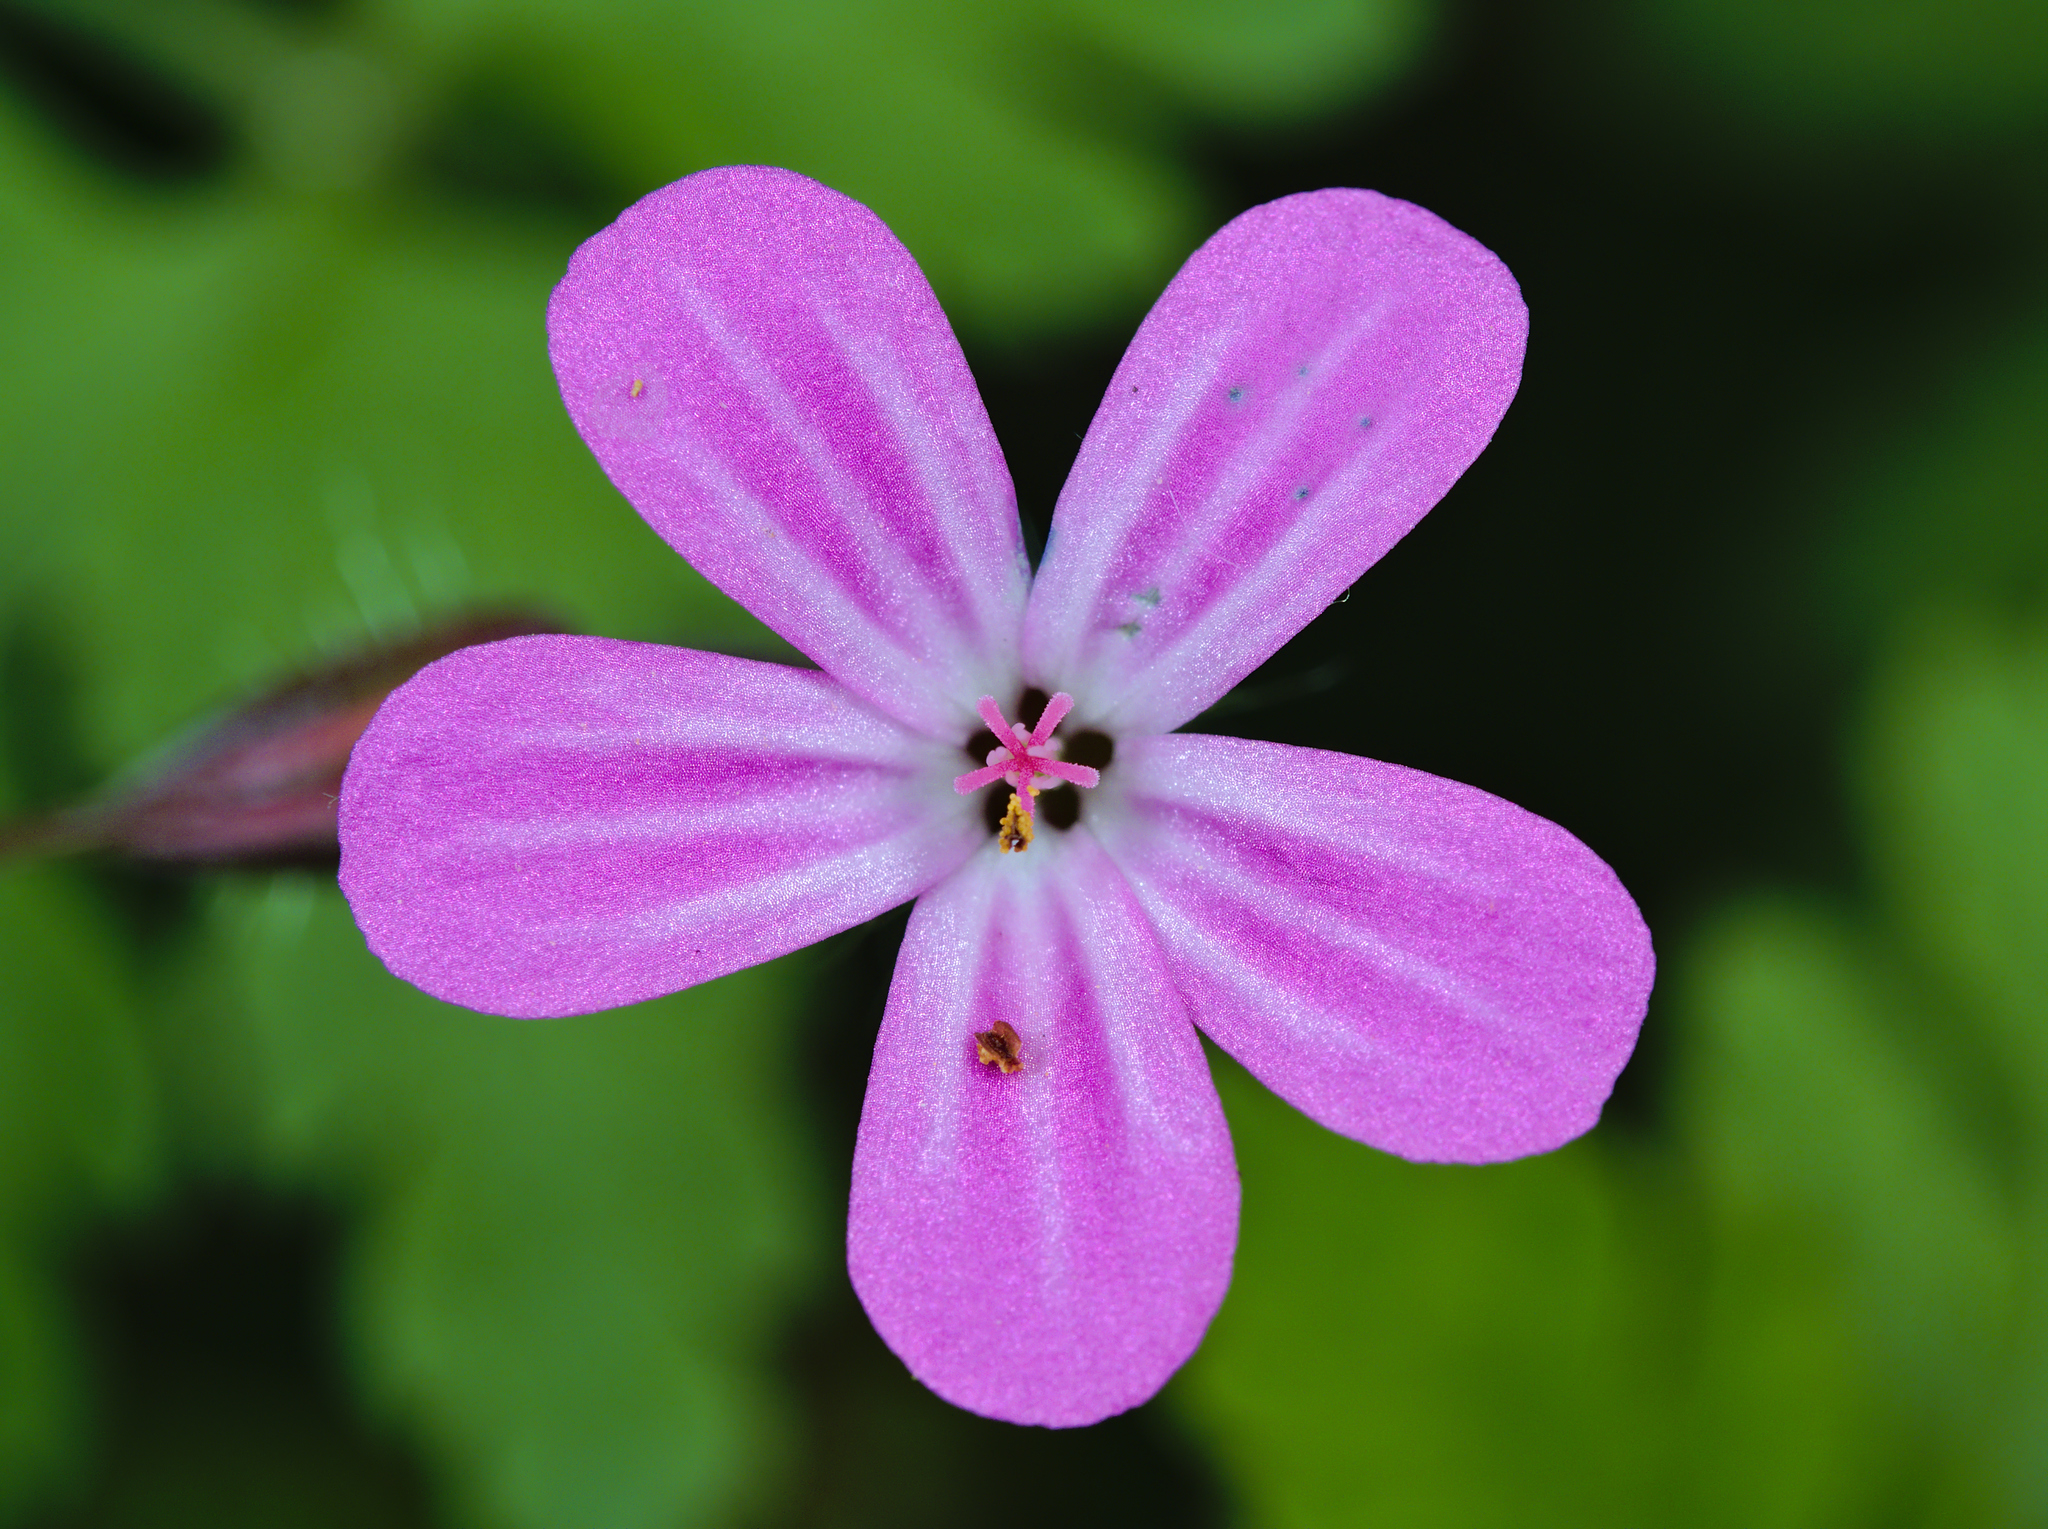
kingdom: Plantae
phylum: Tracheophyta
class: Magnoliopsida
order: Geraniales
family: Geraniaceae
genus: Geranium
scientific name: Geranium robertianum
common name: Herb-robert
